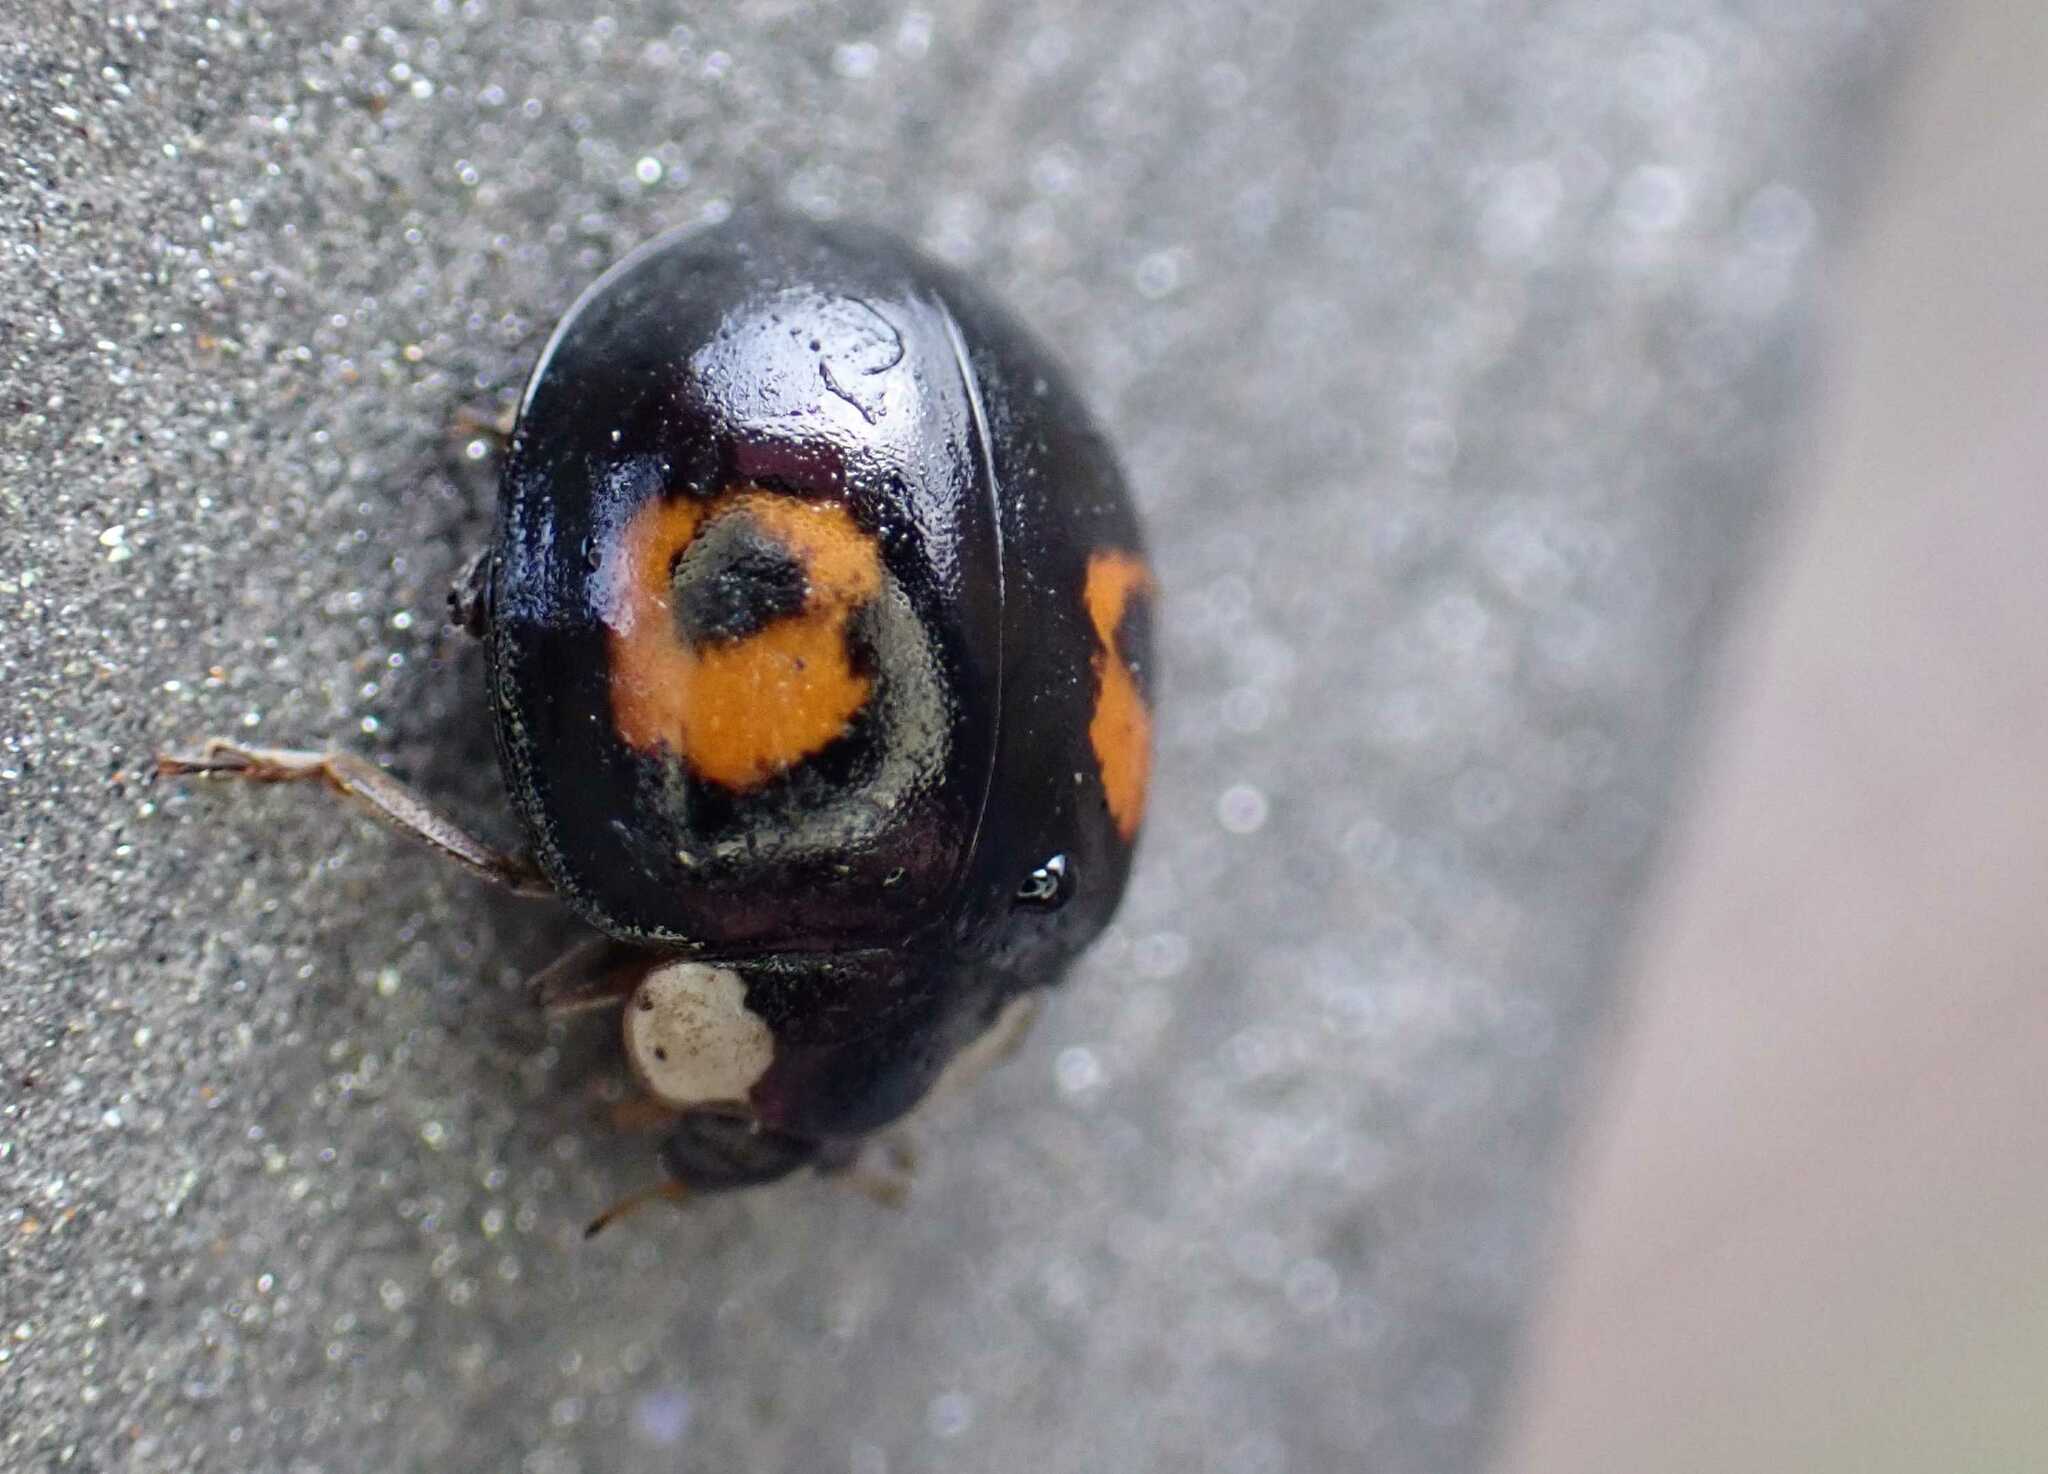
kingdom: Animalia
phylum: Arthropoda
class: Insecta
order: Coleoptera
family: Coccinellidae
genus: Harmonia
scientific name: Harmonia axyridis
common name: Harlequin ladybird
